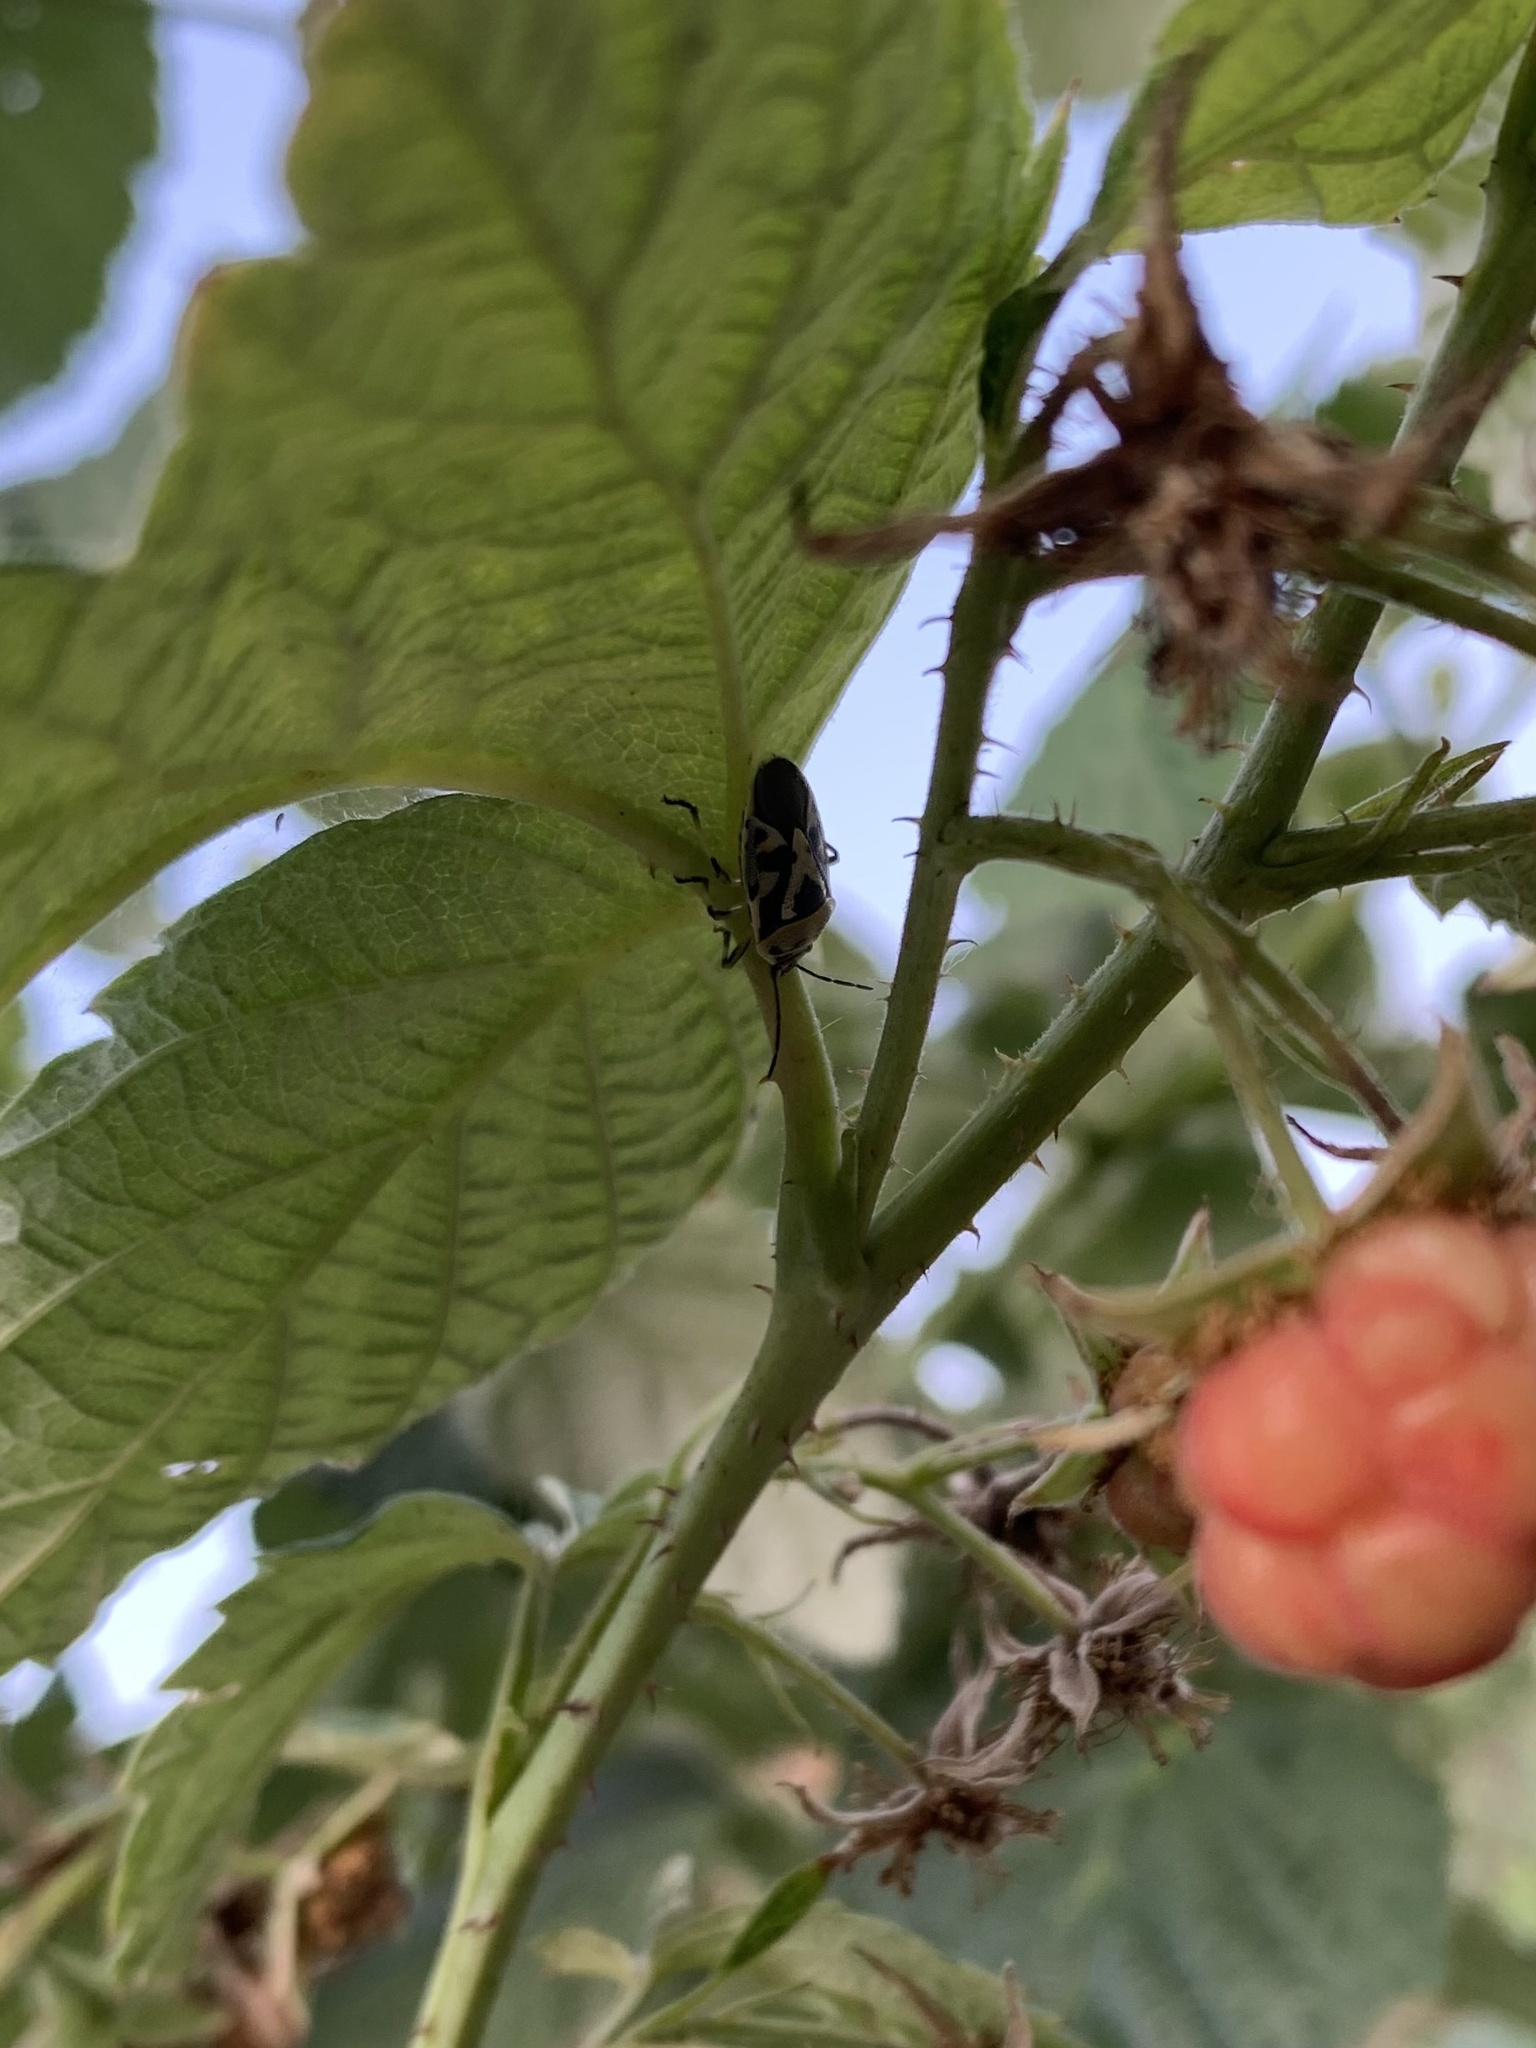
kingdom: Animalia
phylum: Arthropoda
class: Insecta
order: Hemiptera
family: Pentatomidae
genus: Eurydema
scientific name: Eurydema ornata
